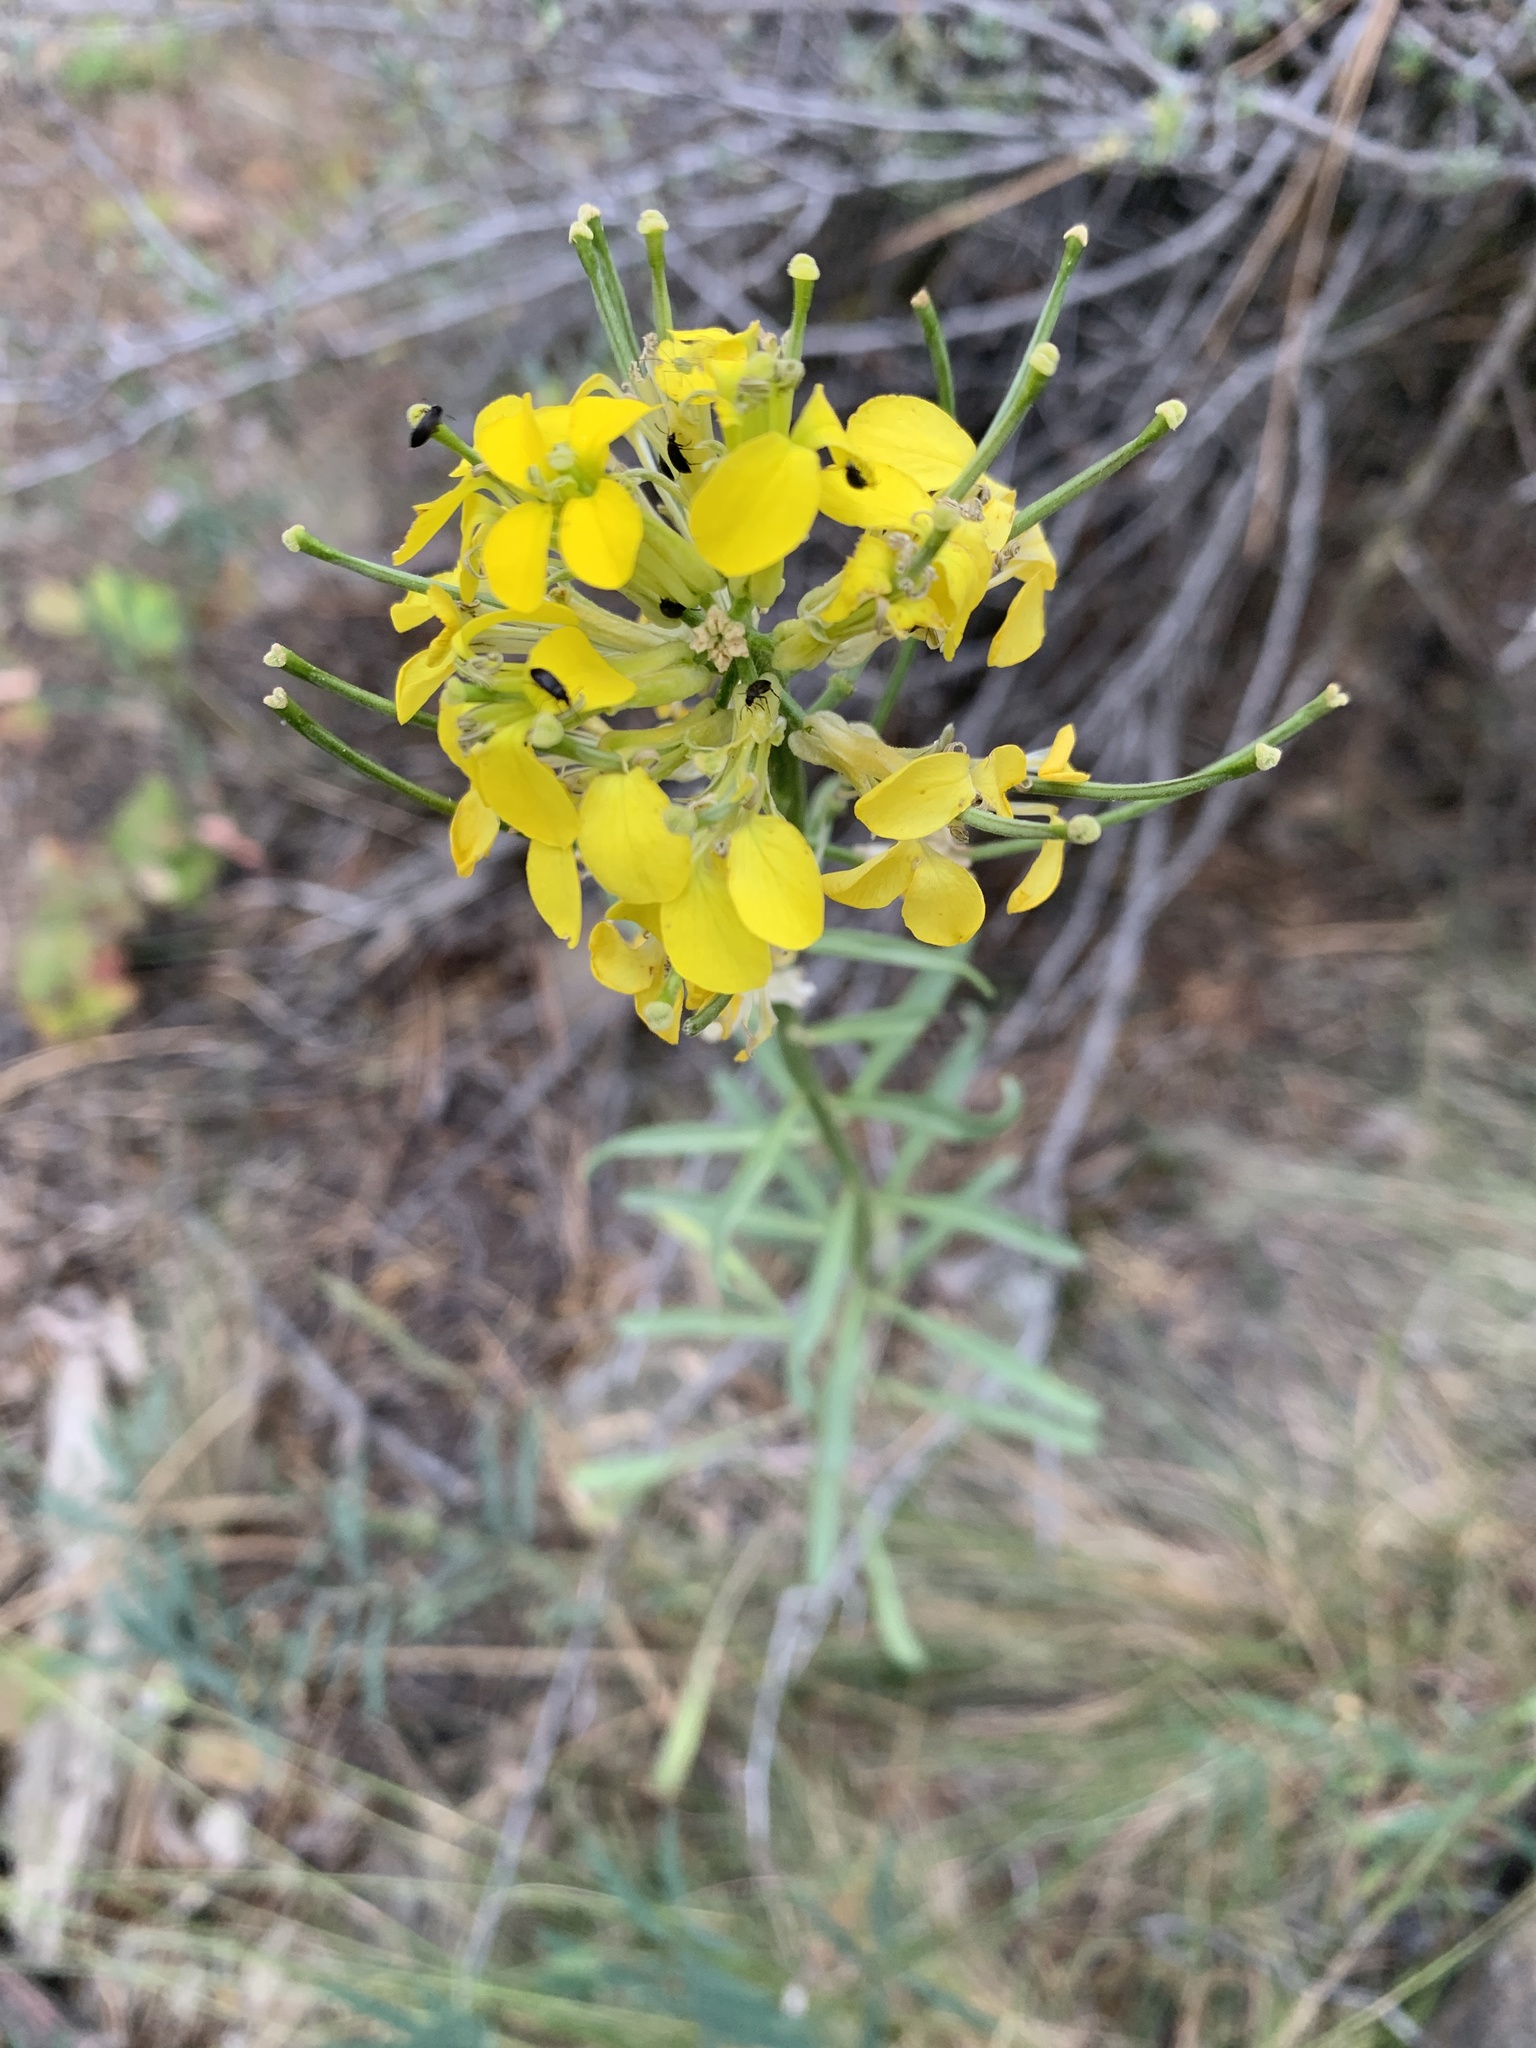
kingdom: Plantae
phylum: Tracheophyta
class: Magnoliopsida
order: Brassicales
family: Brassicaceae
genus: Erysimum
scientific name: Erysimum capitatum
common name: Western wallflower
